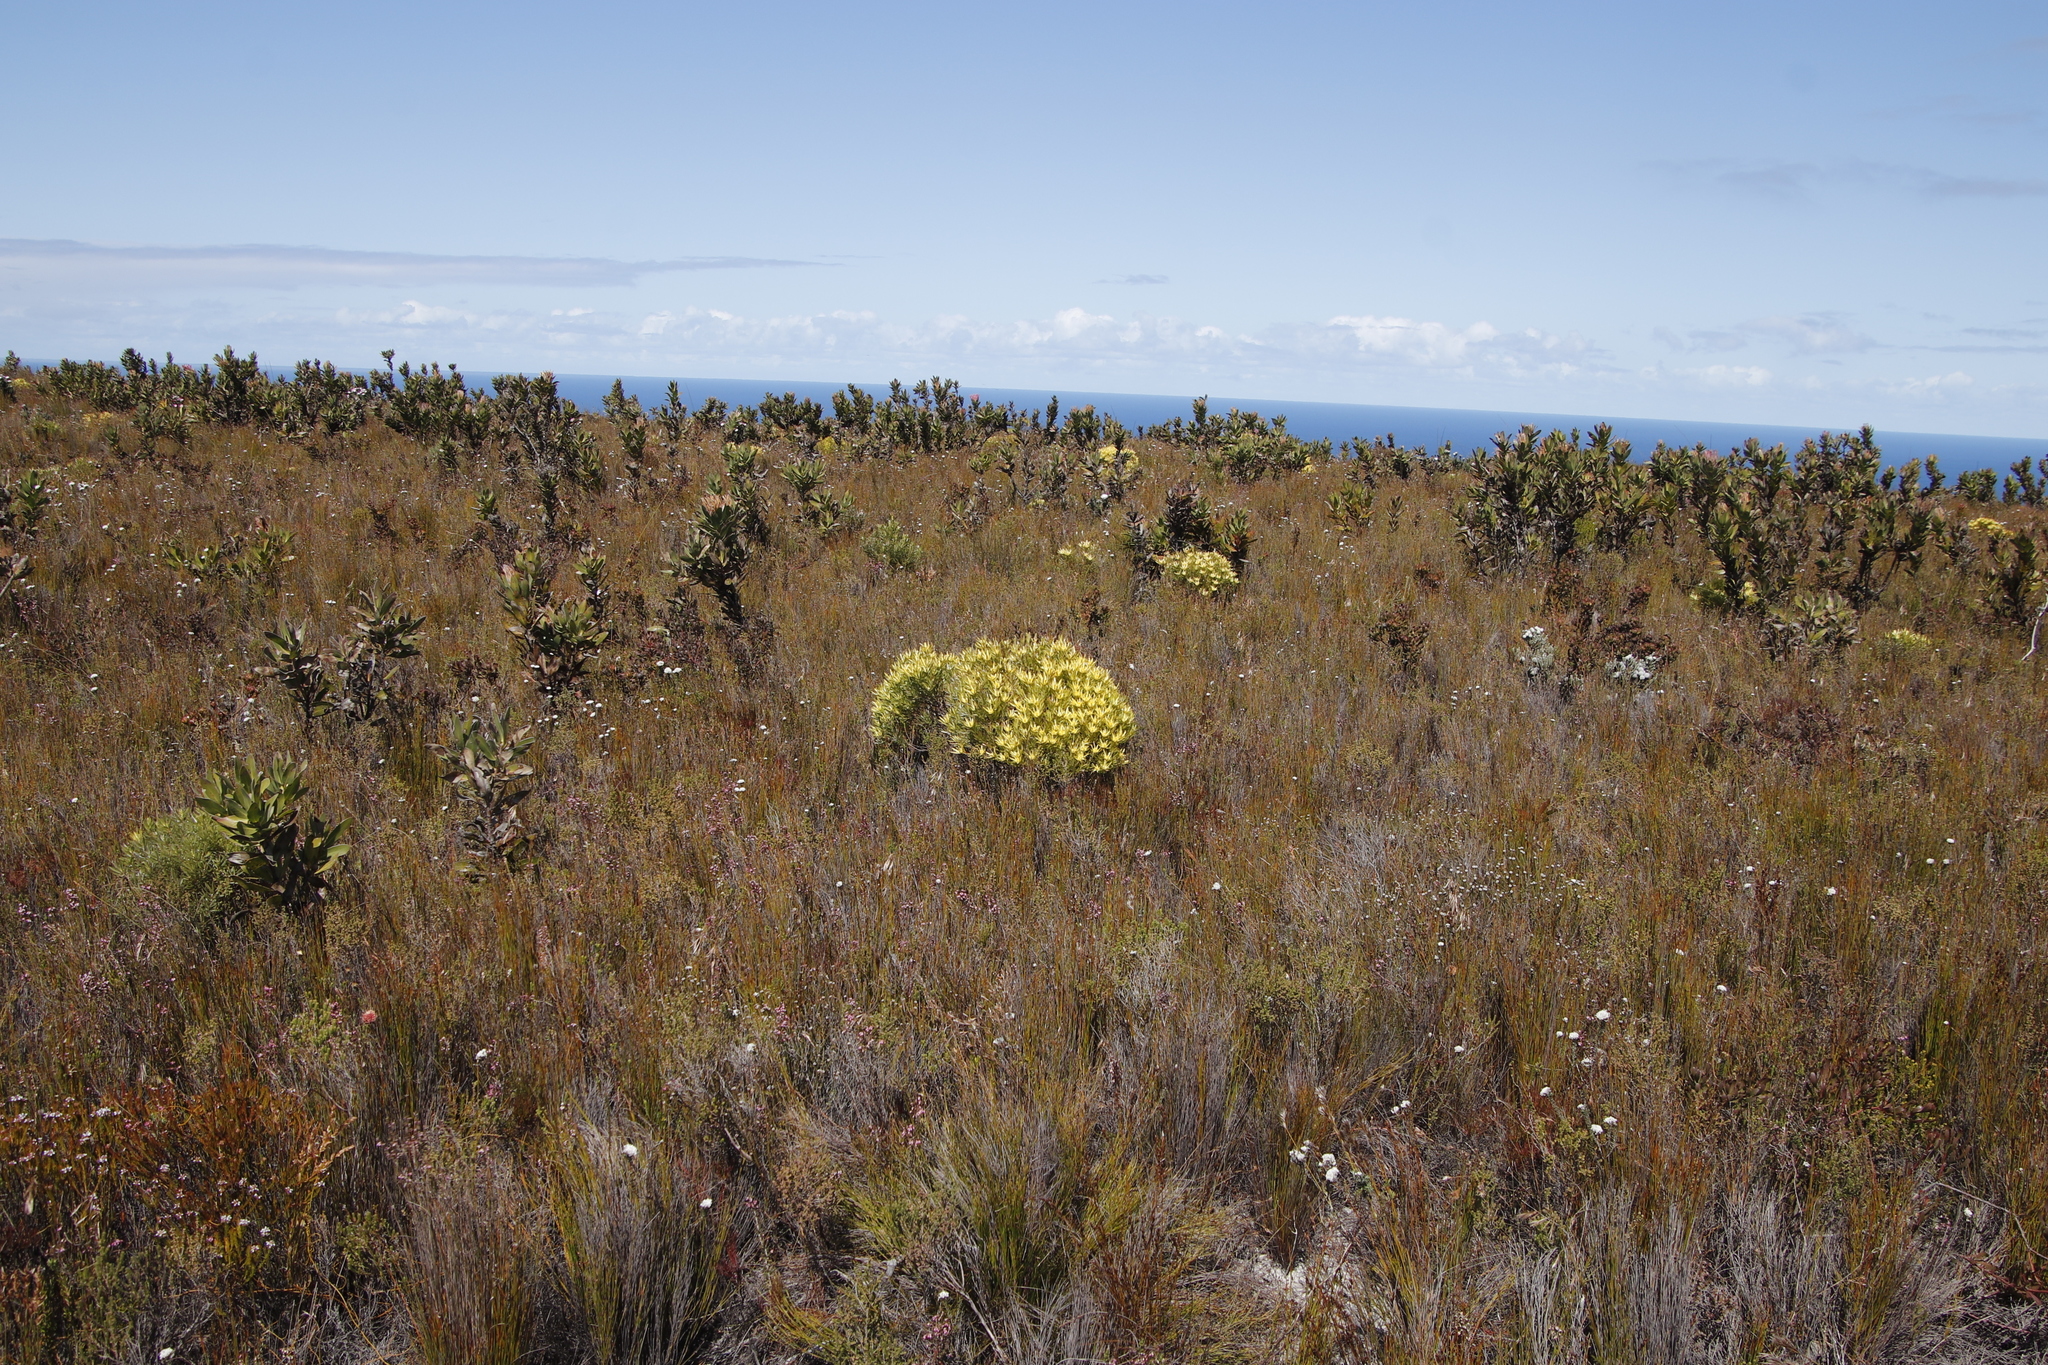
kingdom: Plantae
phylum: Tracheophyta
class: Magnoliopsida
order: Proteales
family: Proteaceae
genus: Leucadendron
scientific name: Leucadendron xanthoconus
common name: Sickle-leaf conebush
